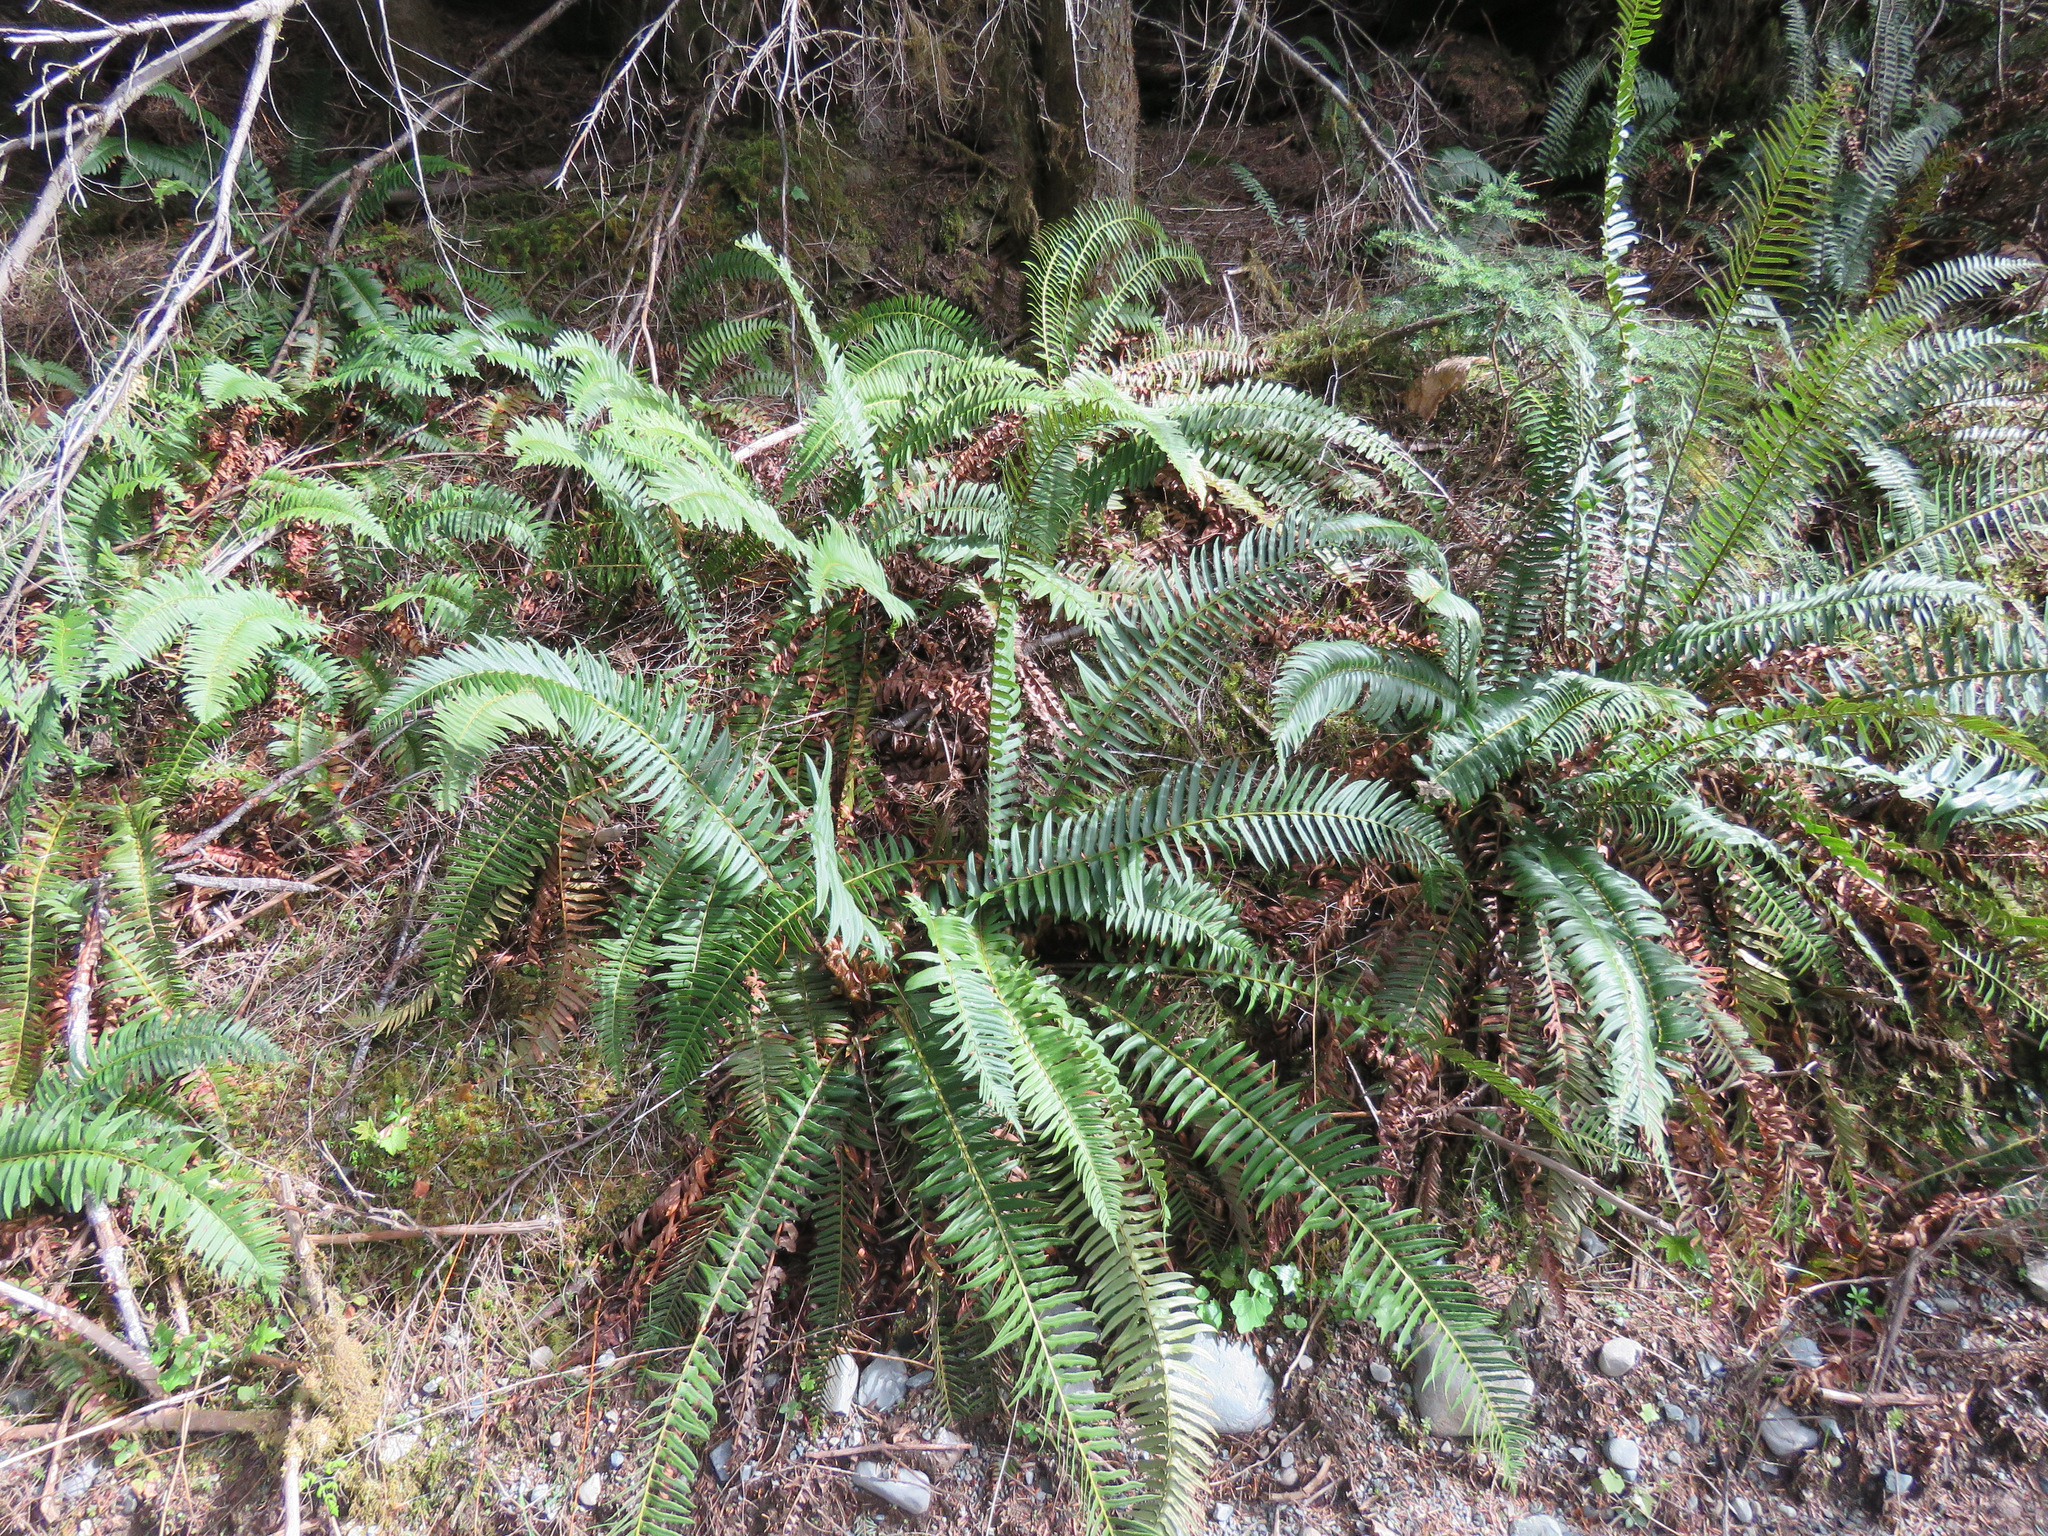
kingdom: Plantae
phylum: Tracheophyta
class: Polypodiopsida
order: Polypodiales
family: Dryopteridaceae
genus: Polystichum
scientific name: Polystichum munitum
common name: Western sword-fern
